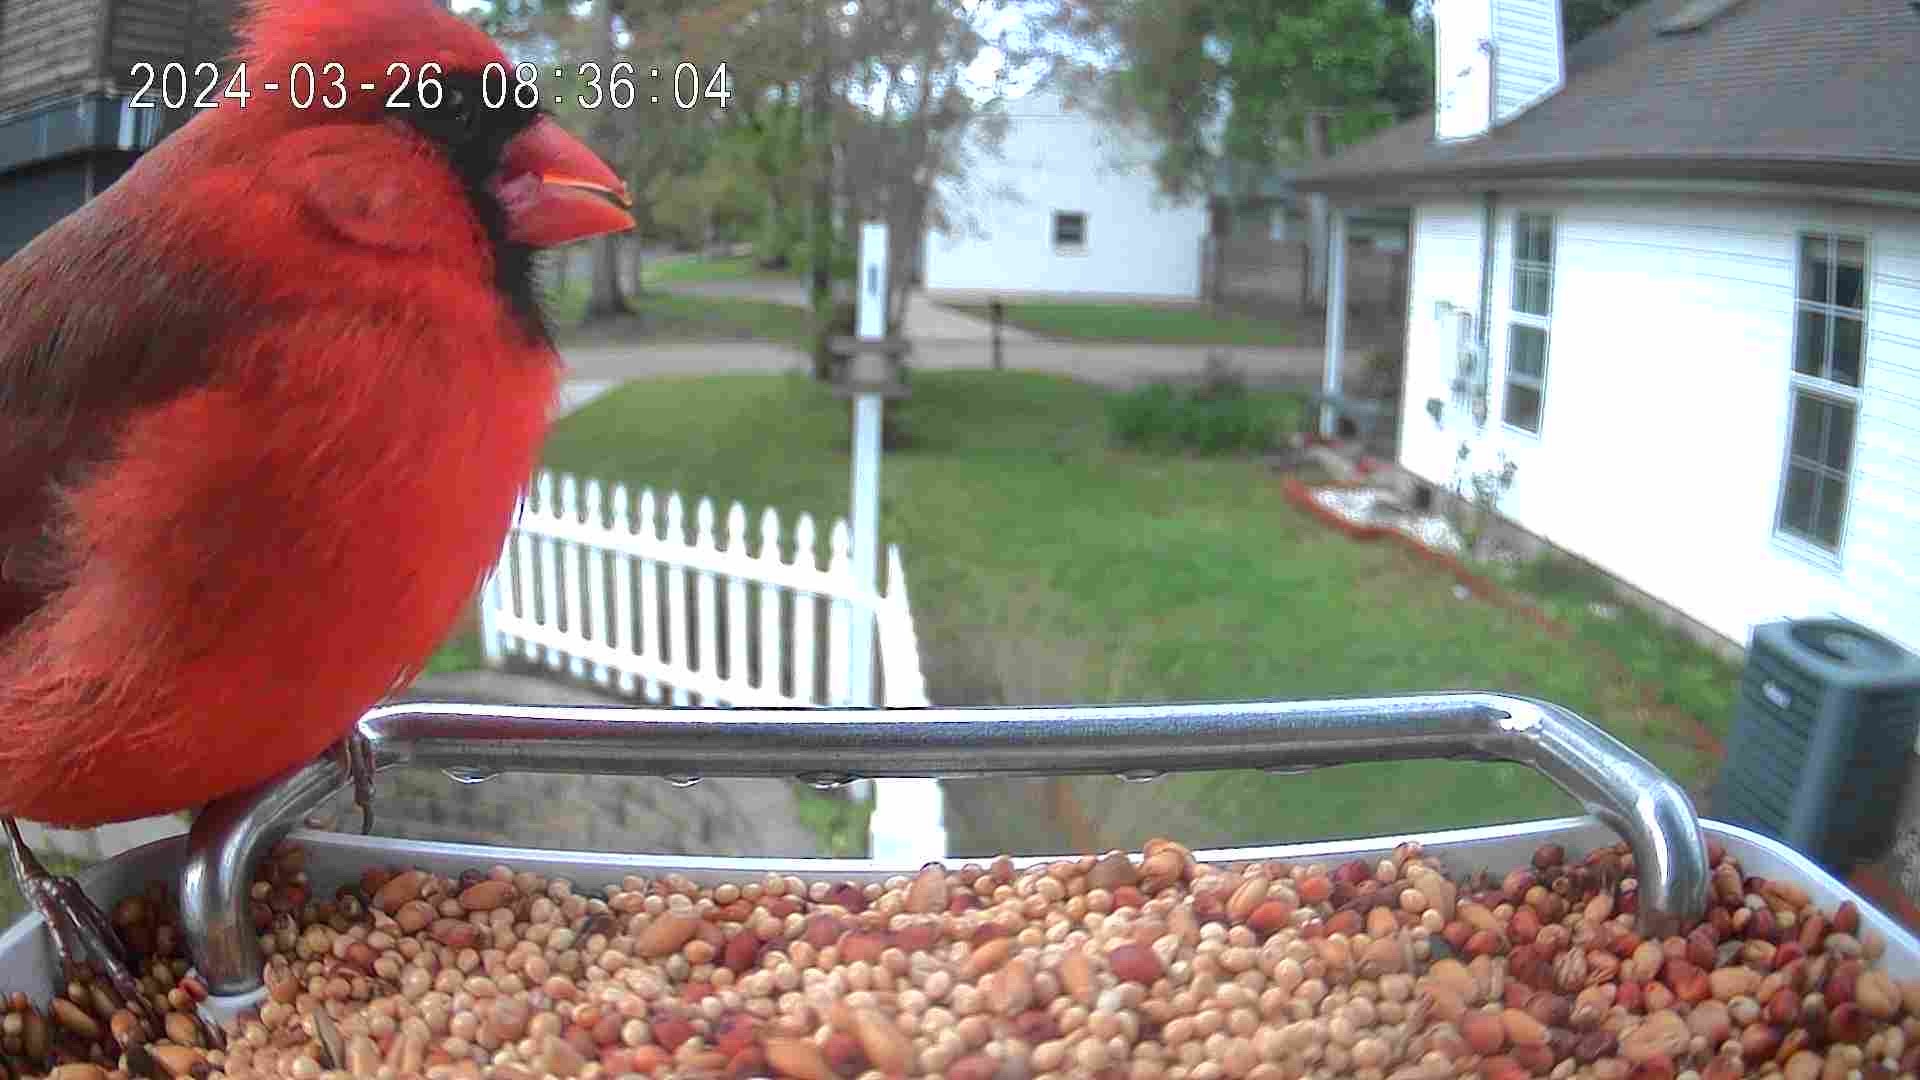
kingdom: Animalia
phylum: Chordata
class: Aves
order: Passeriformes
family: Cardinalidae
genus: Cardinalis
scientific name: Cardinalis cardinalis
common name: Northern cardinal
